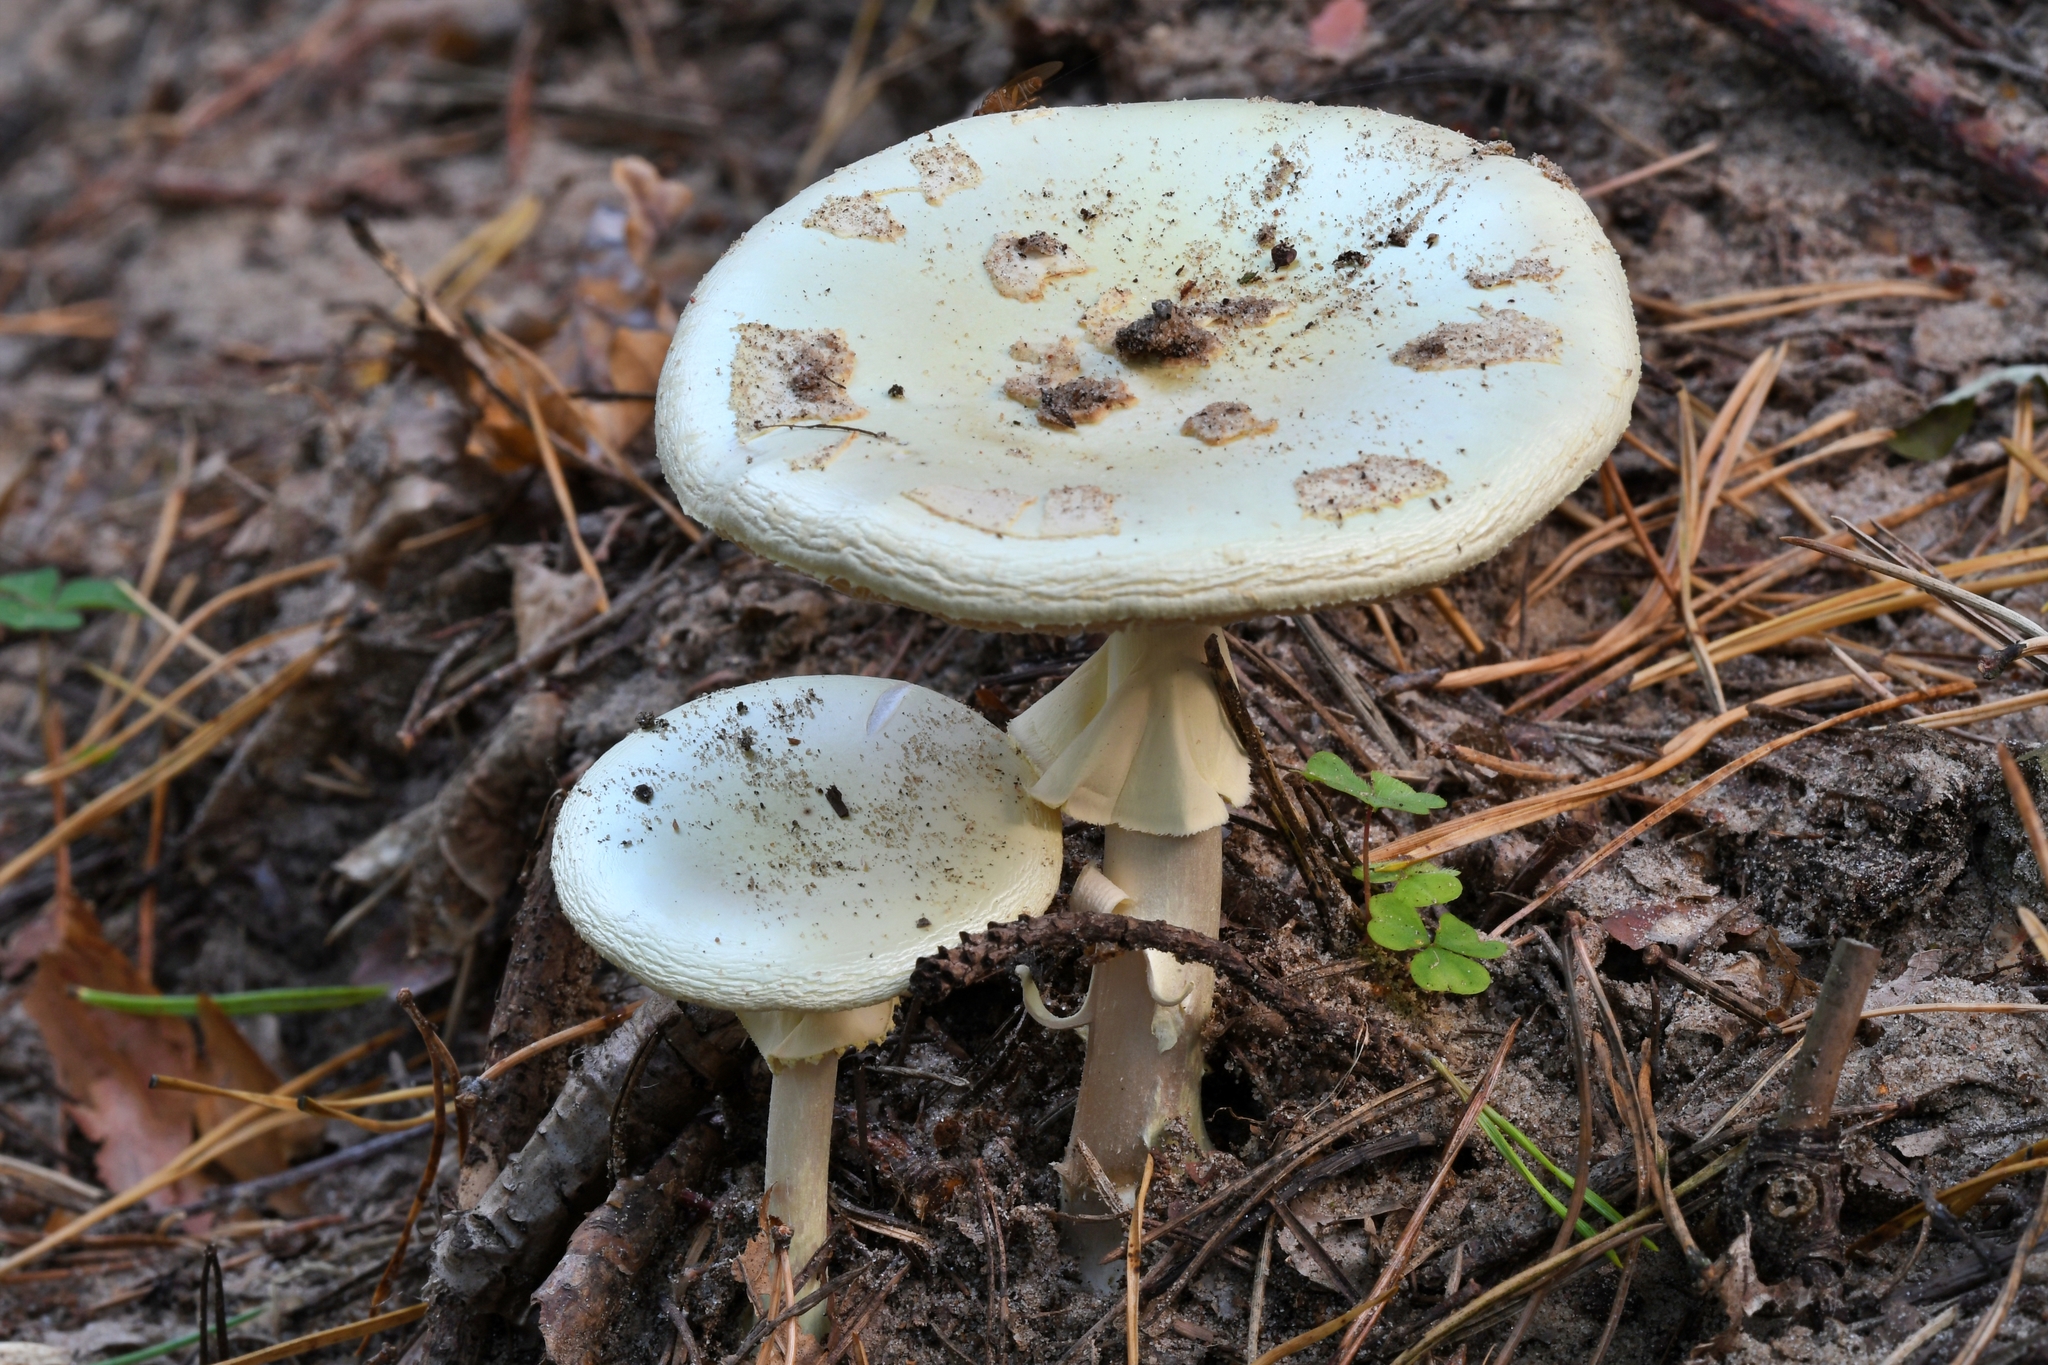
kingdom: Fungi
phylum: Basidiomycota
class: Agaricomycetes
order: Agaricales
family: Amanitaceae
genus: Amanita
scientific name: Amanita citrina
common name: False death-cap
